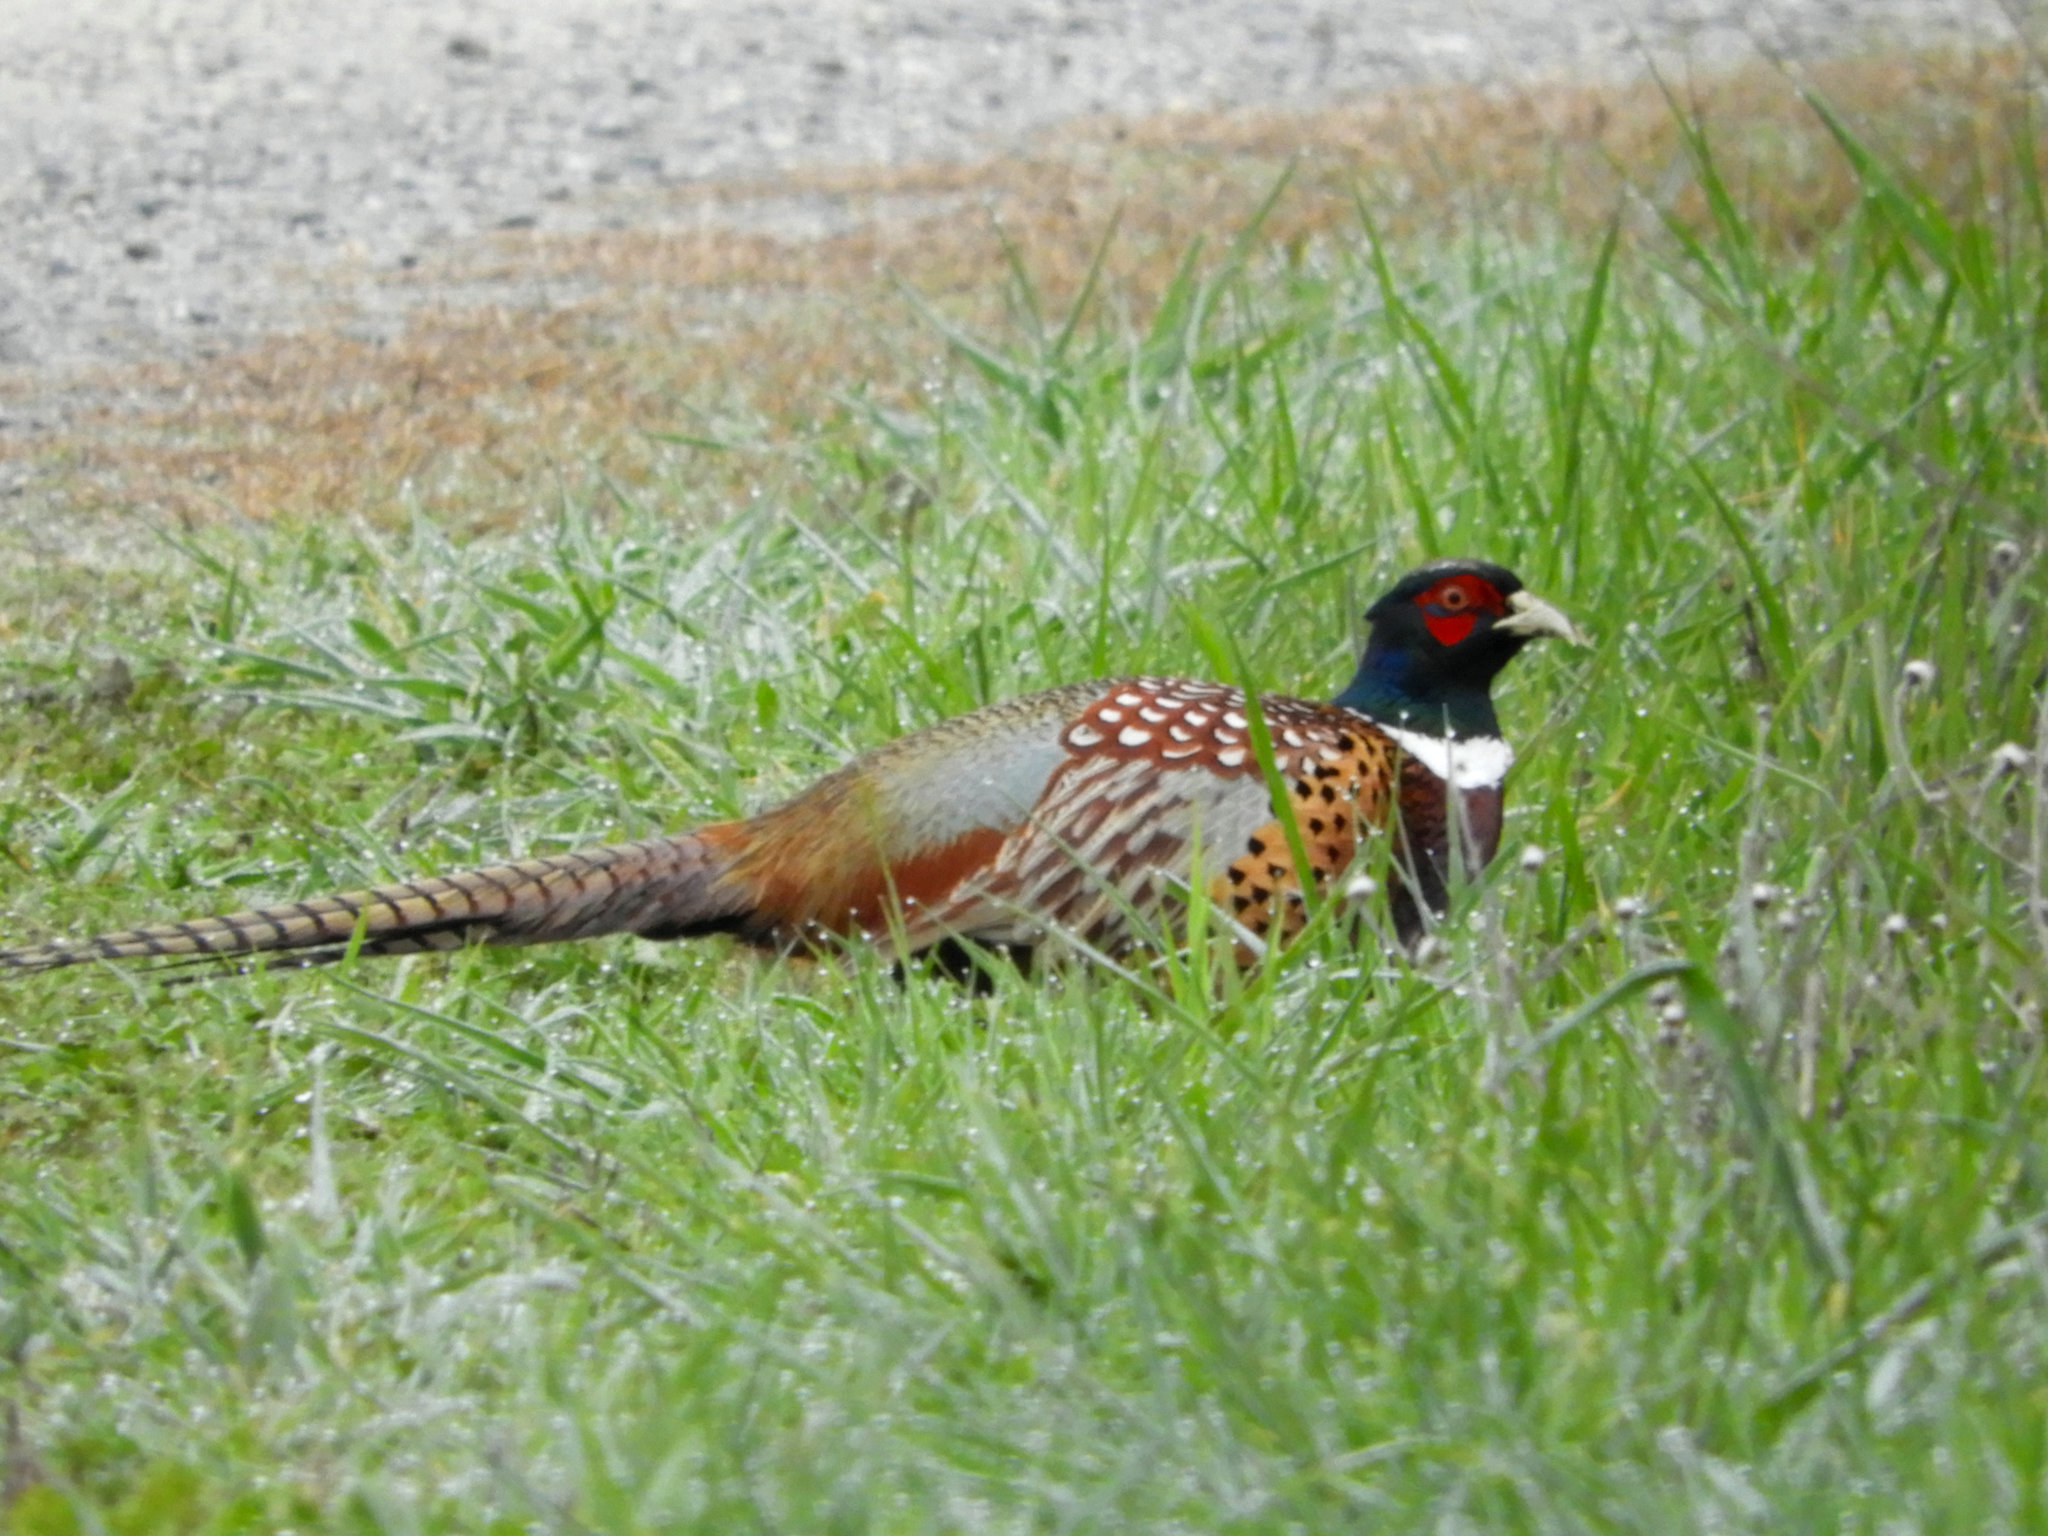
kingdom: Animalia
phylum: Chordata
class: Aves
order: Galliformes
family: Phasianidae
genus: Phasianus
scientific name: Phasianus colchicus
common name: Common pheasant
